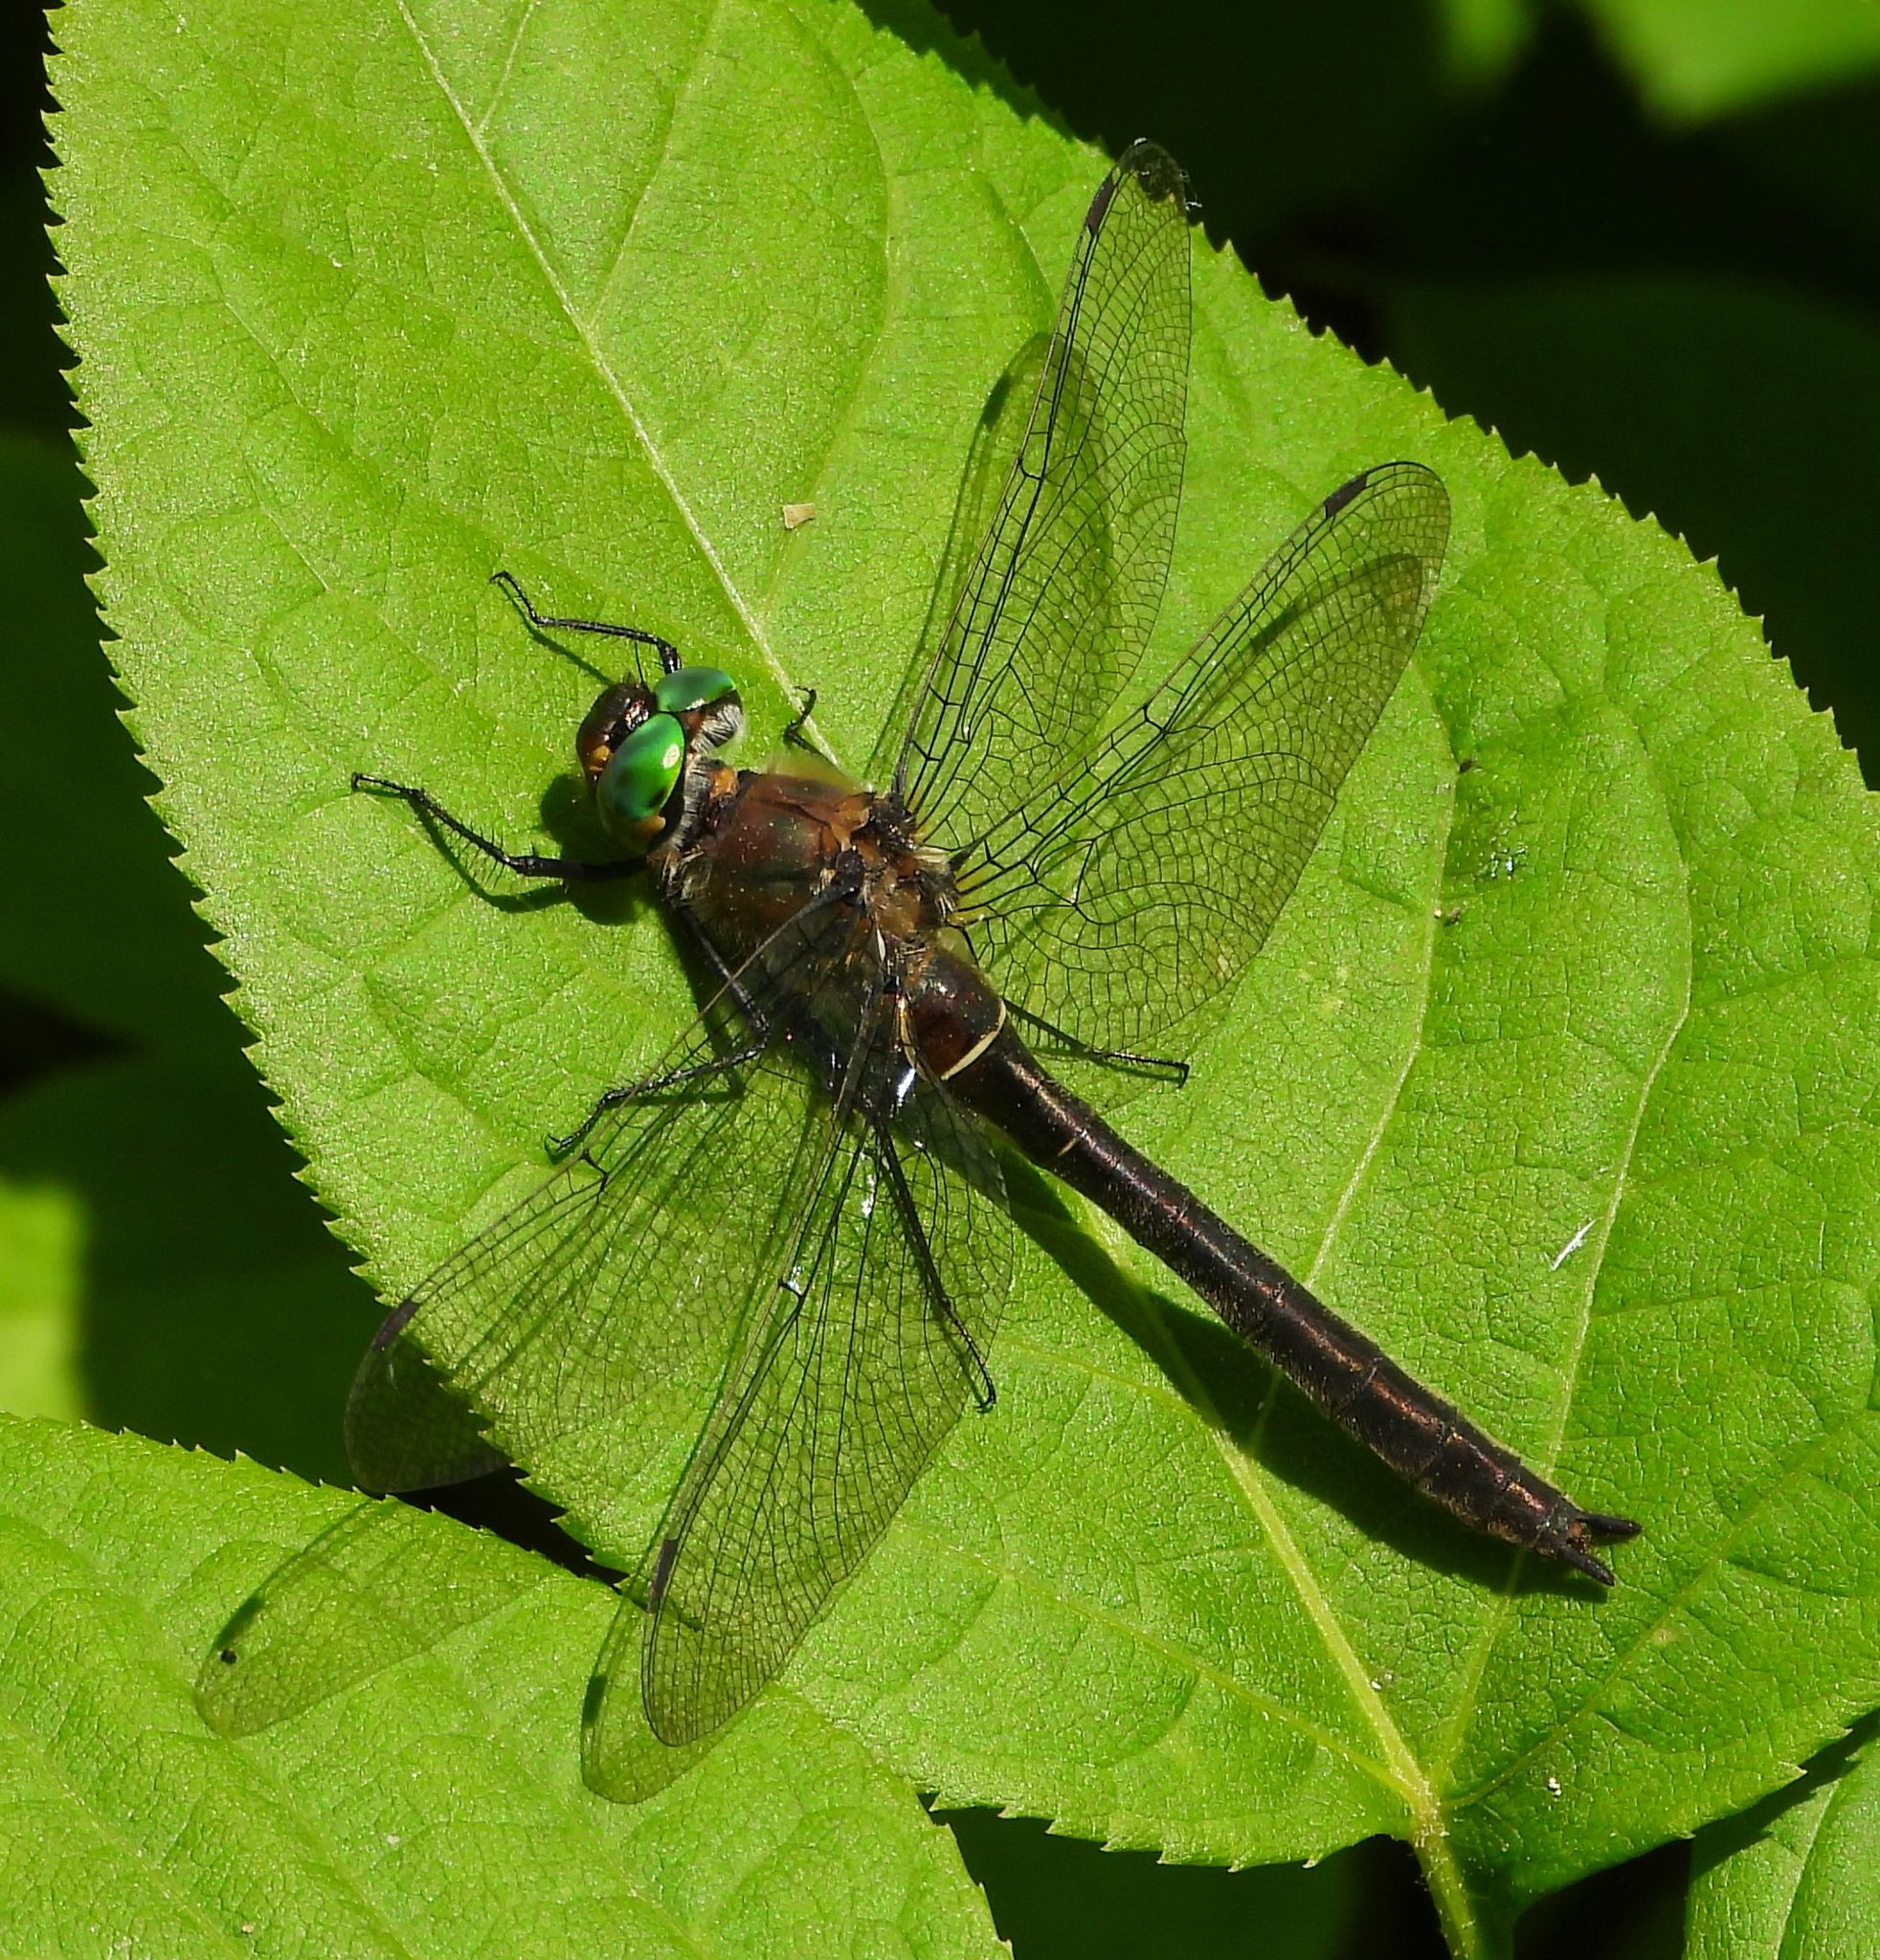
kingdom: Animalia
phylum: Arthropoda
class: Insecta
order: Odonata
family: Corduliidae
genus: Cordulia
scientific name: Cordulia shurtleffii
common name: American emerald
